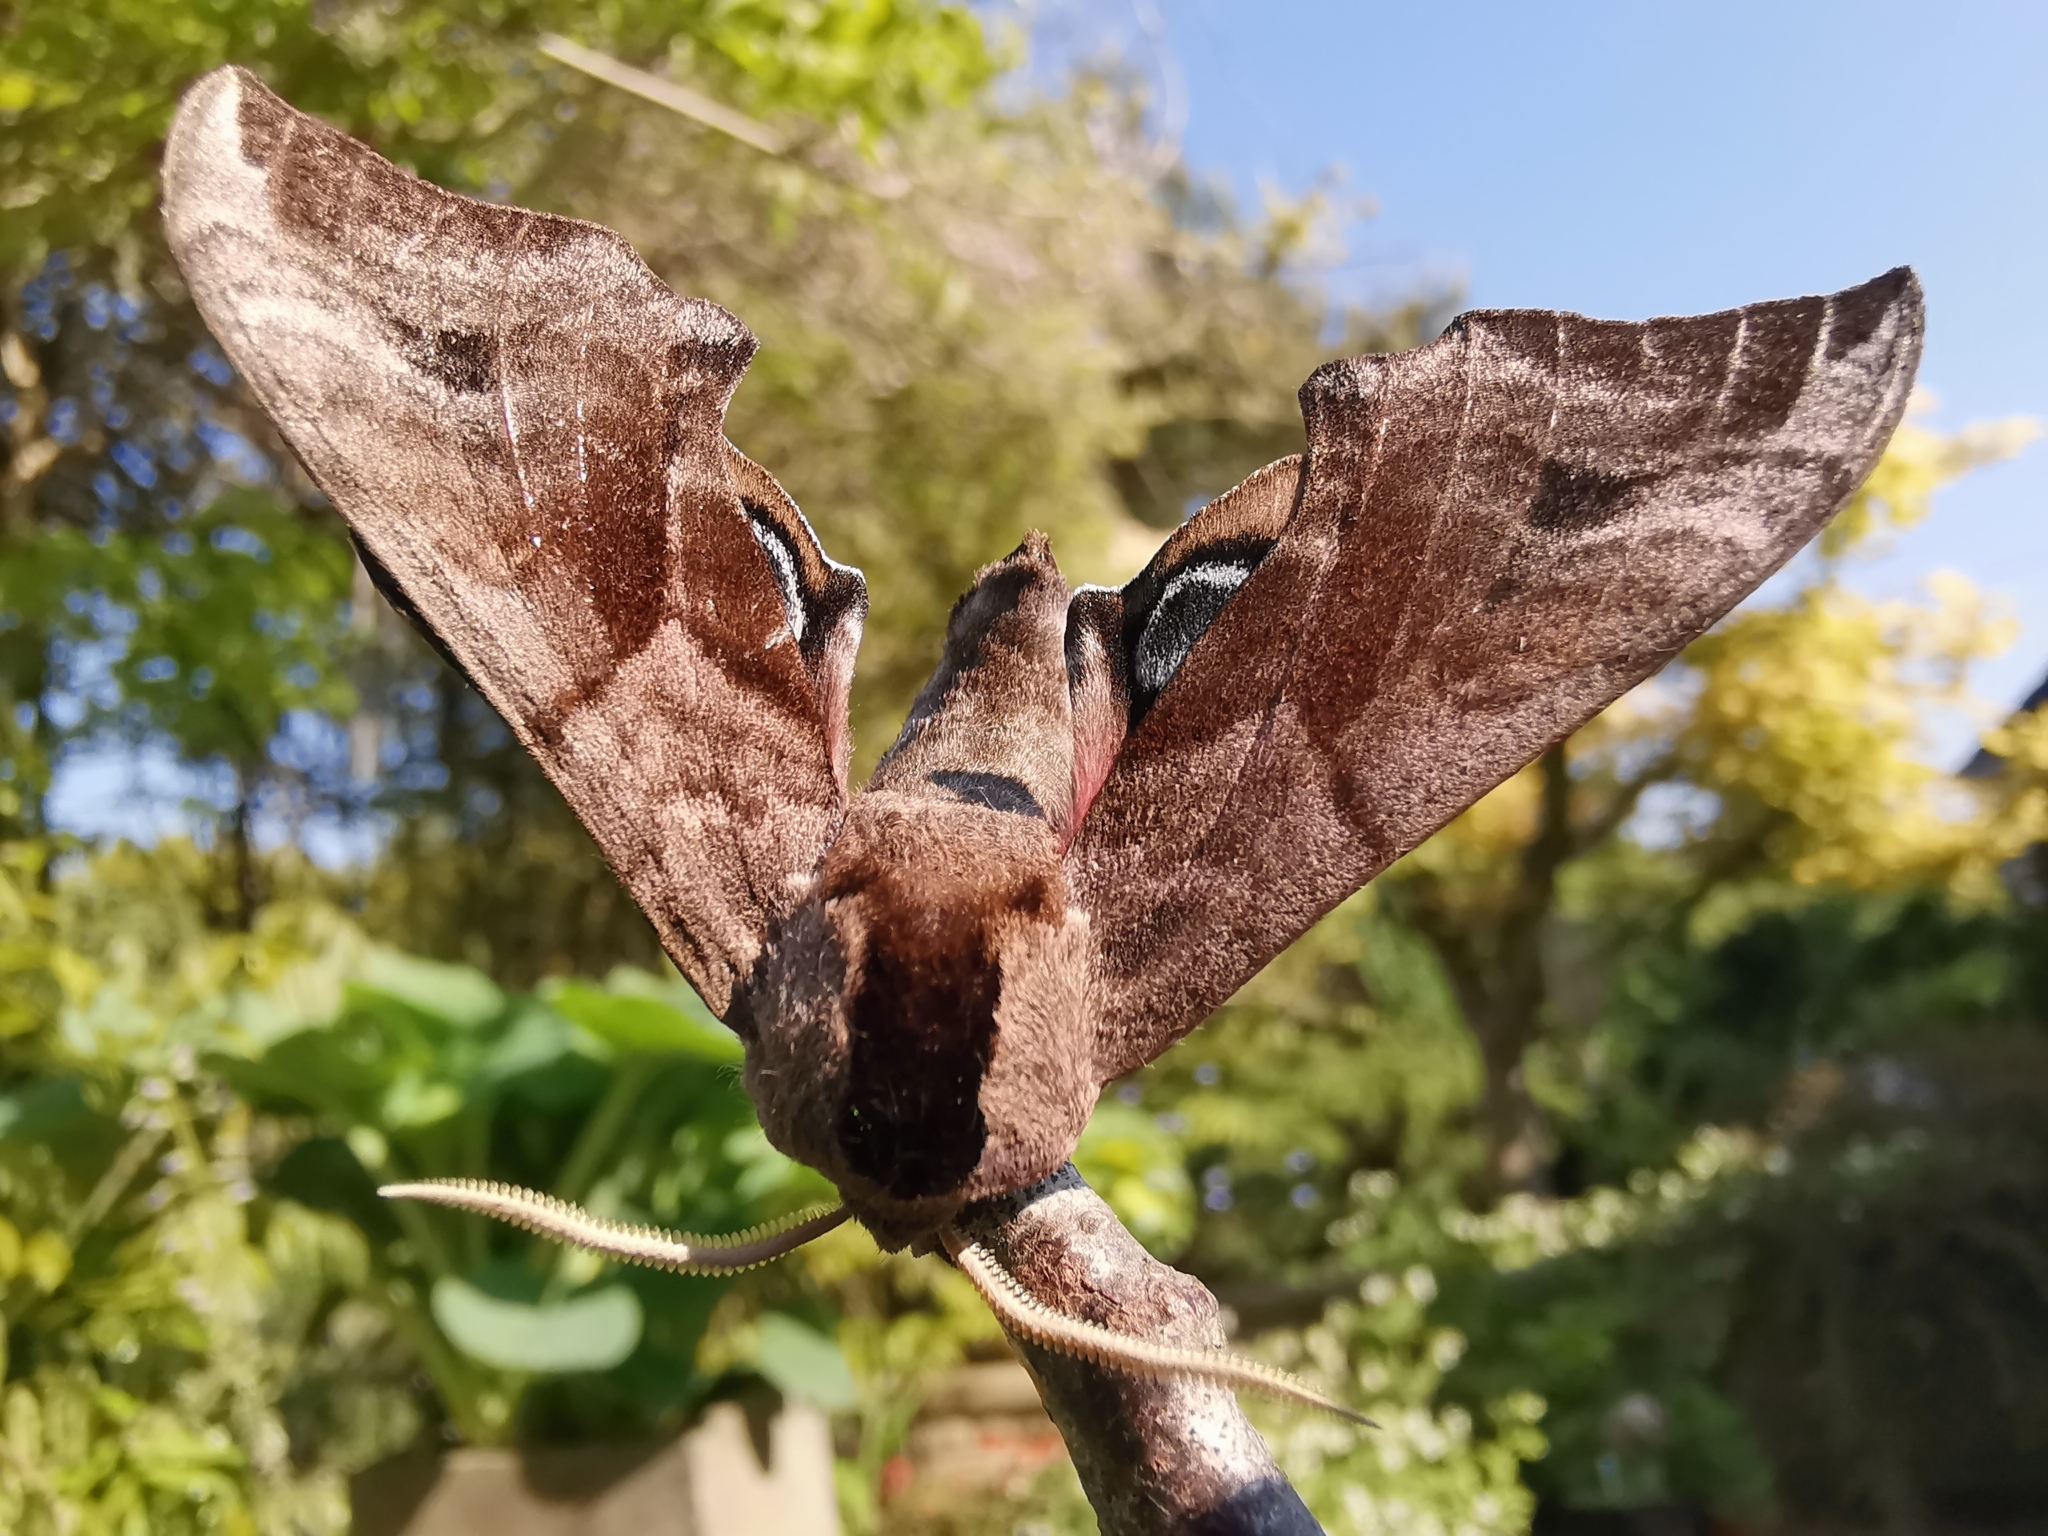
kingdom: Animalia
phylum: Arthropoda
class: Insecta
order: Lepidoptera
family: Sphingidae
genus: Smerinthus
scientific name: Smerinthus ocellata
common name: Eyed hawk-moth
